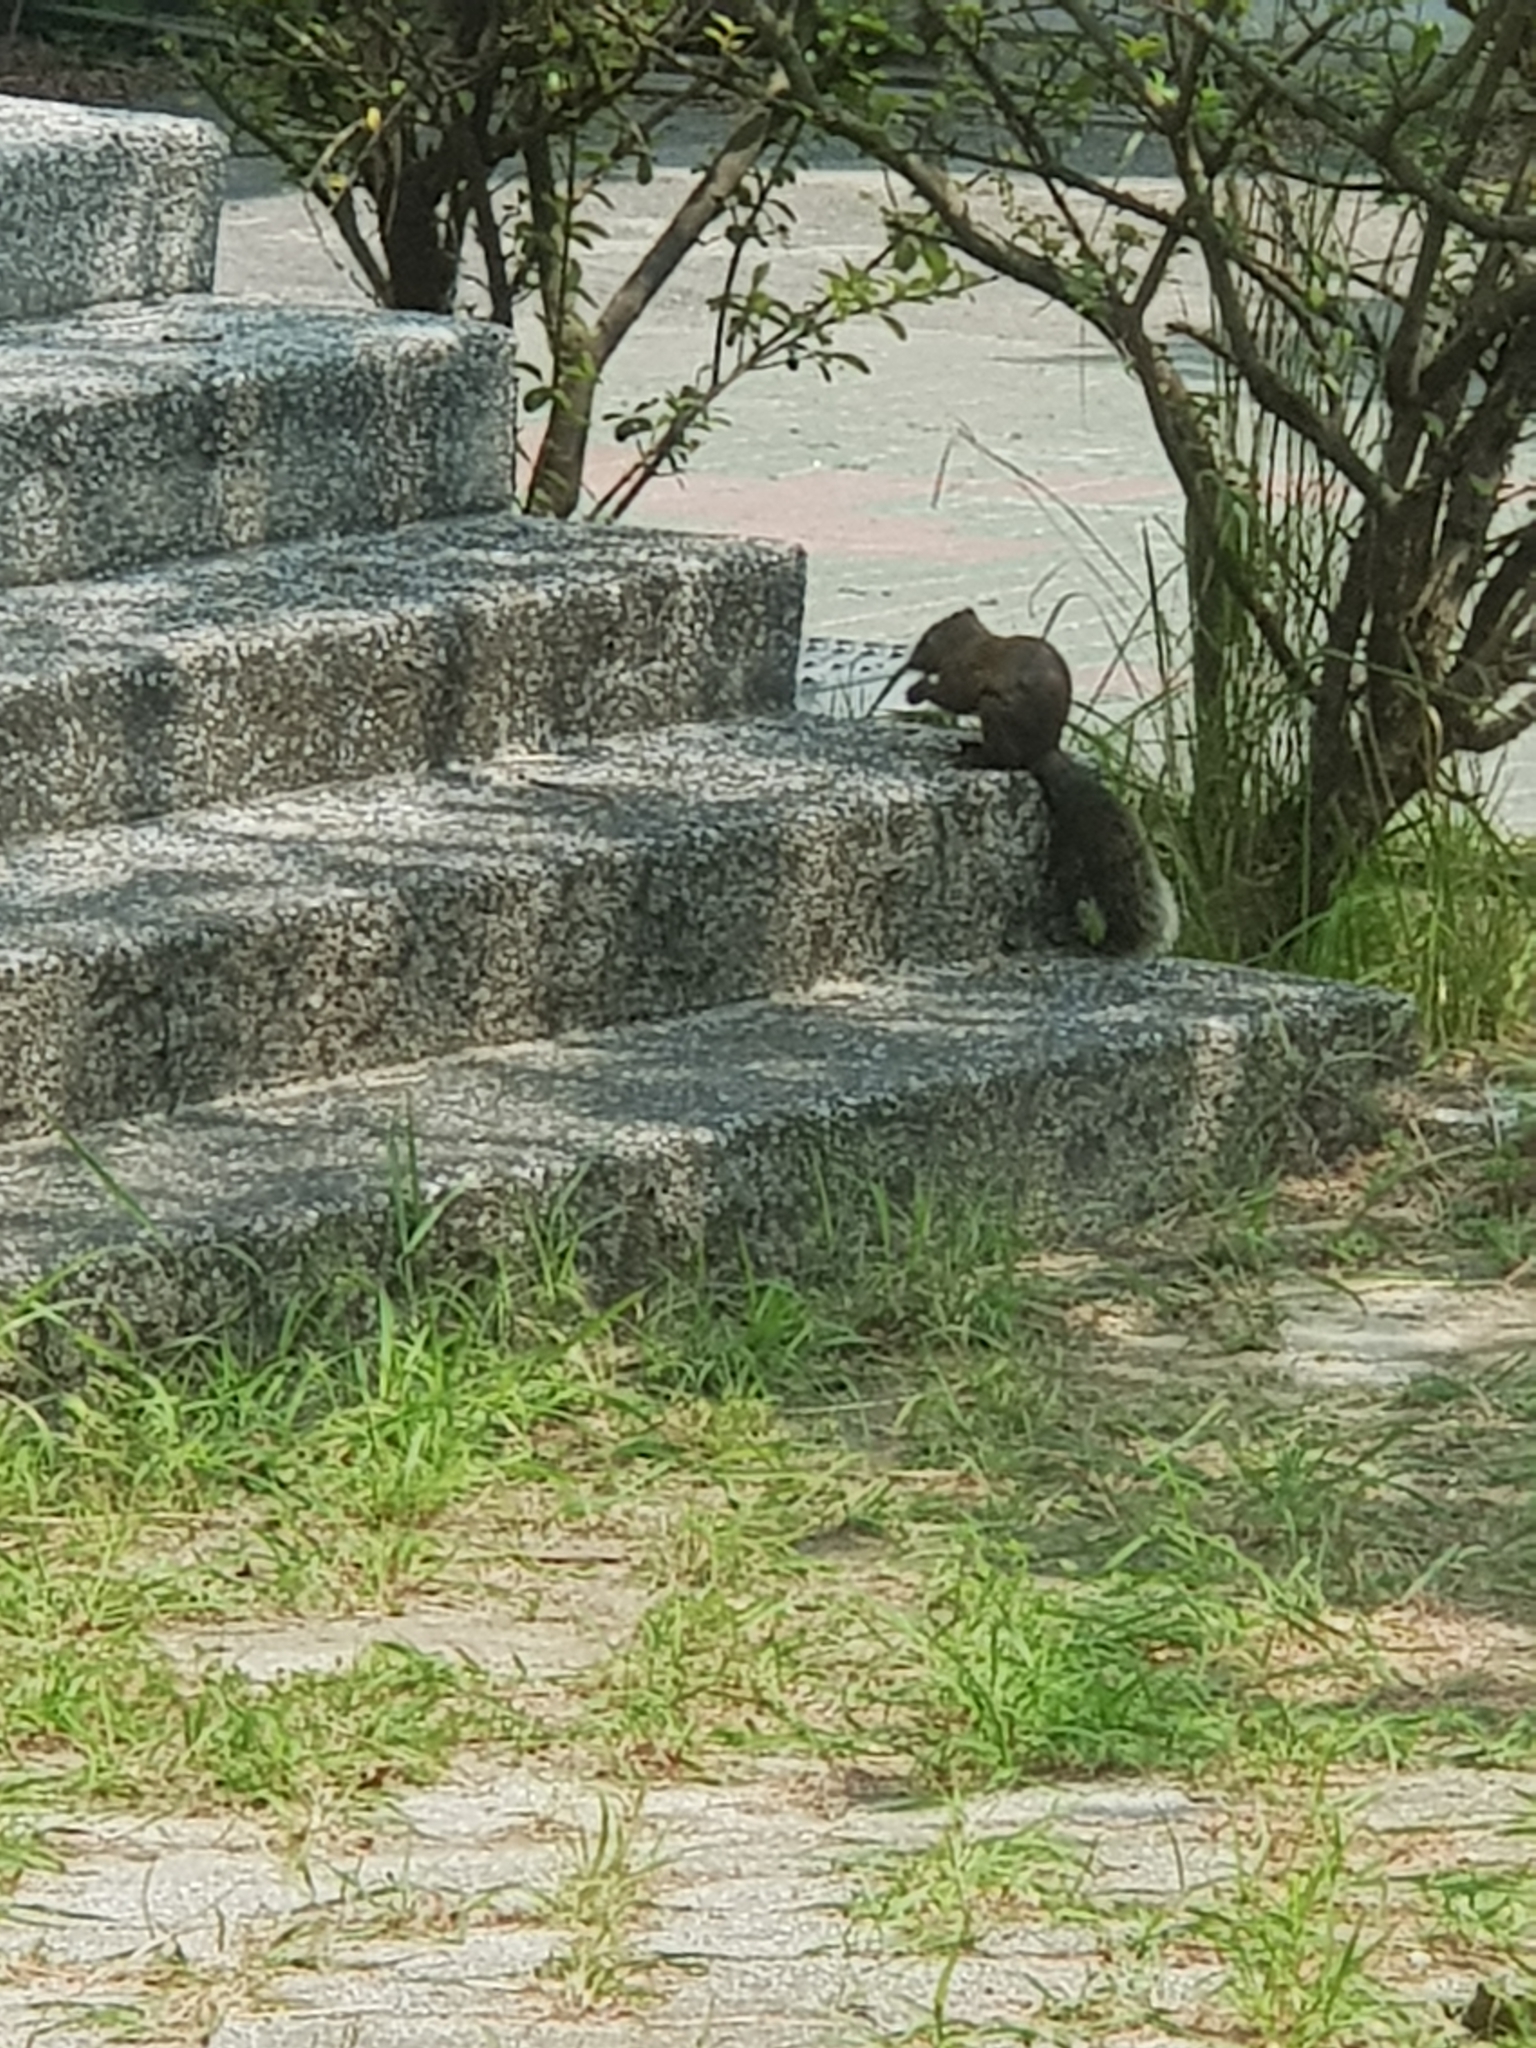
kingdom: Animalia
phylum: Chordata
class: Mammalia
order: Rodentia
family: Sciuridae
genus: Callosciurus
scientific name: Callosciurus erythraeus
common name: Pallas's squirrel
